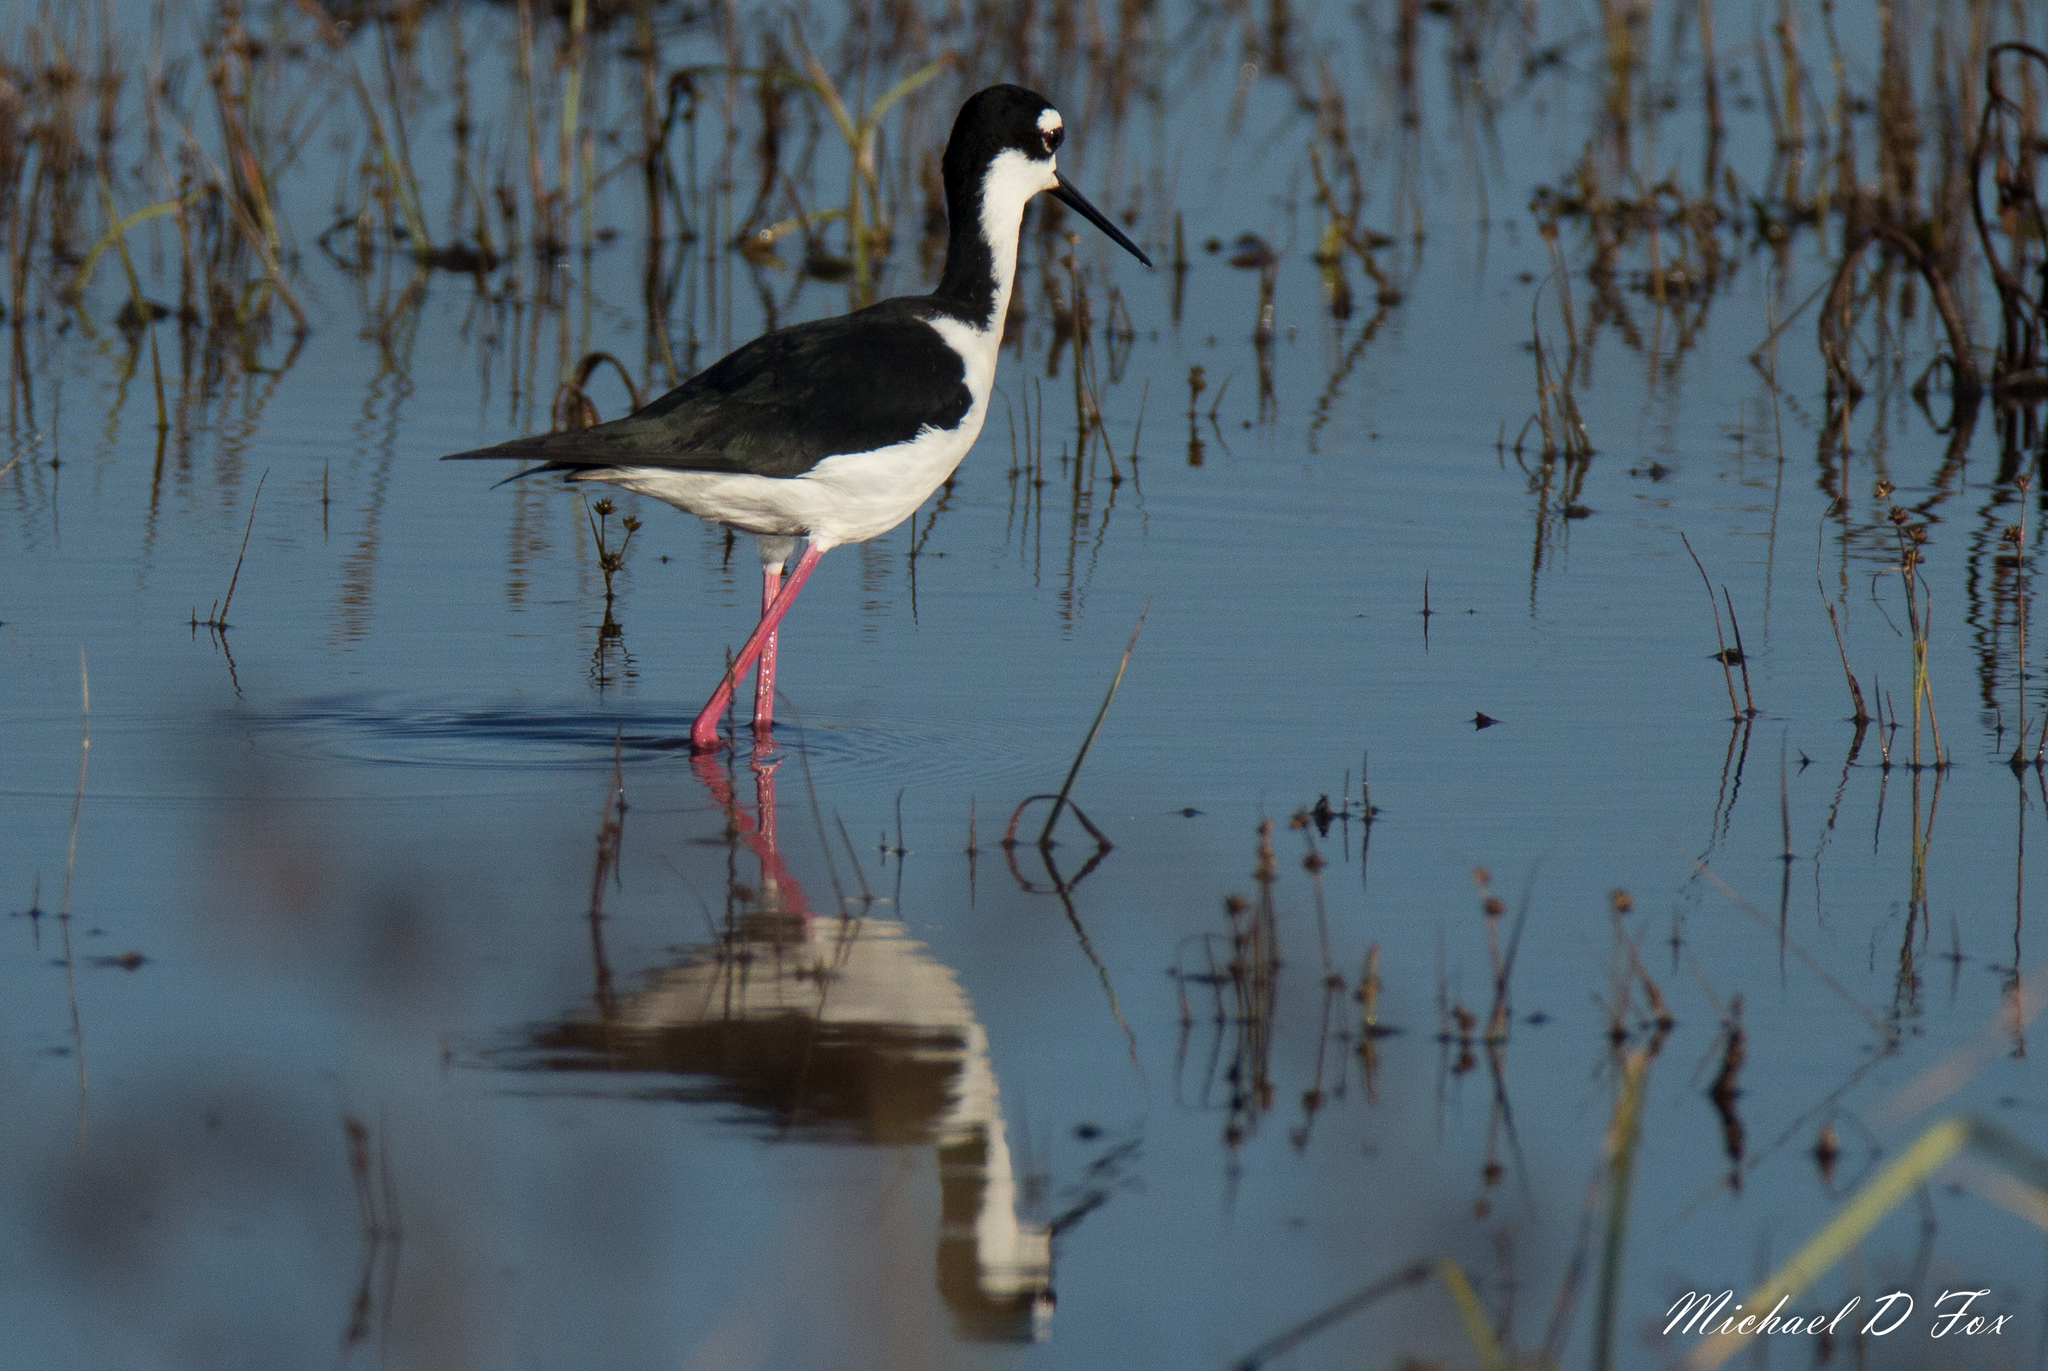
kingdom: Animalia
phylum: Chordata
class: Aves
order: Charadriiformes
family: Recurvirostridae
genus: Himantopus
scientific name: Himantopus mexicanus
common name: Black-necked stilt
